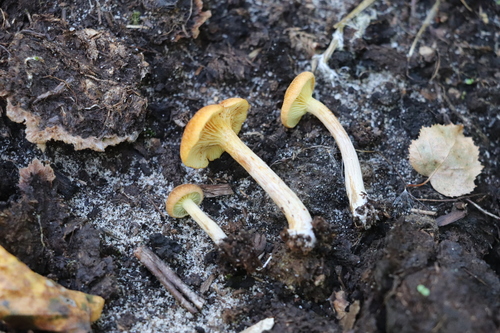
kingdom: Fungi
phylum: Basidiomycota
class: Agaricomycetes
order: Agaricales
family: Hymenogastraceae
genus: Gymnopilus
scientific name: Gymnopilus
